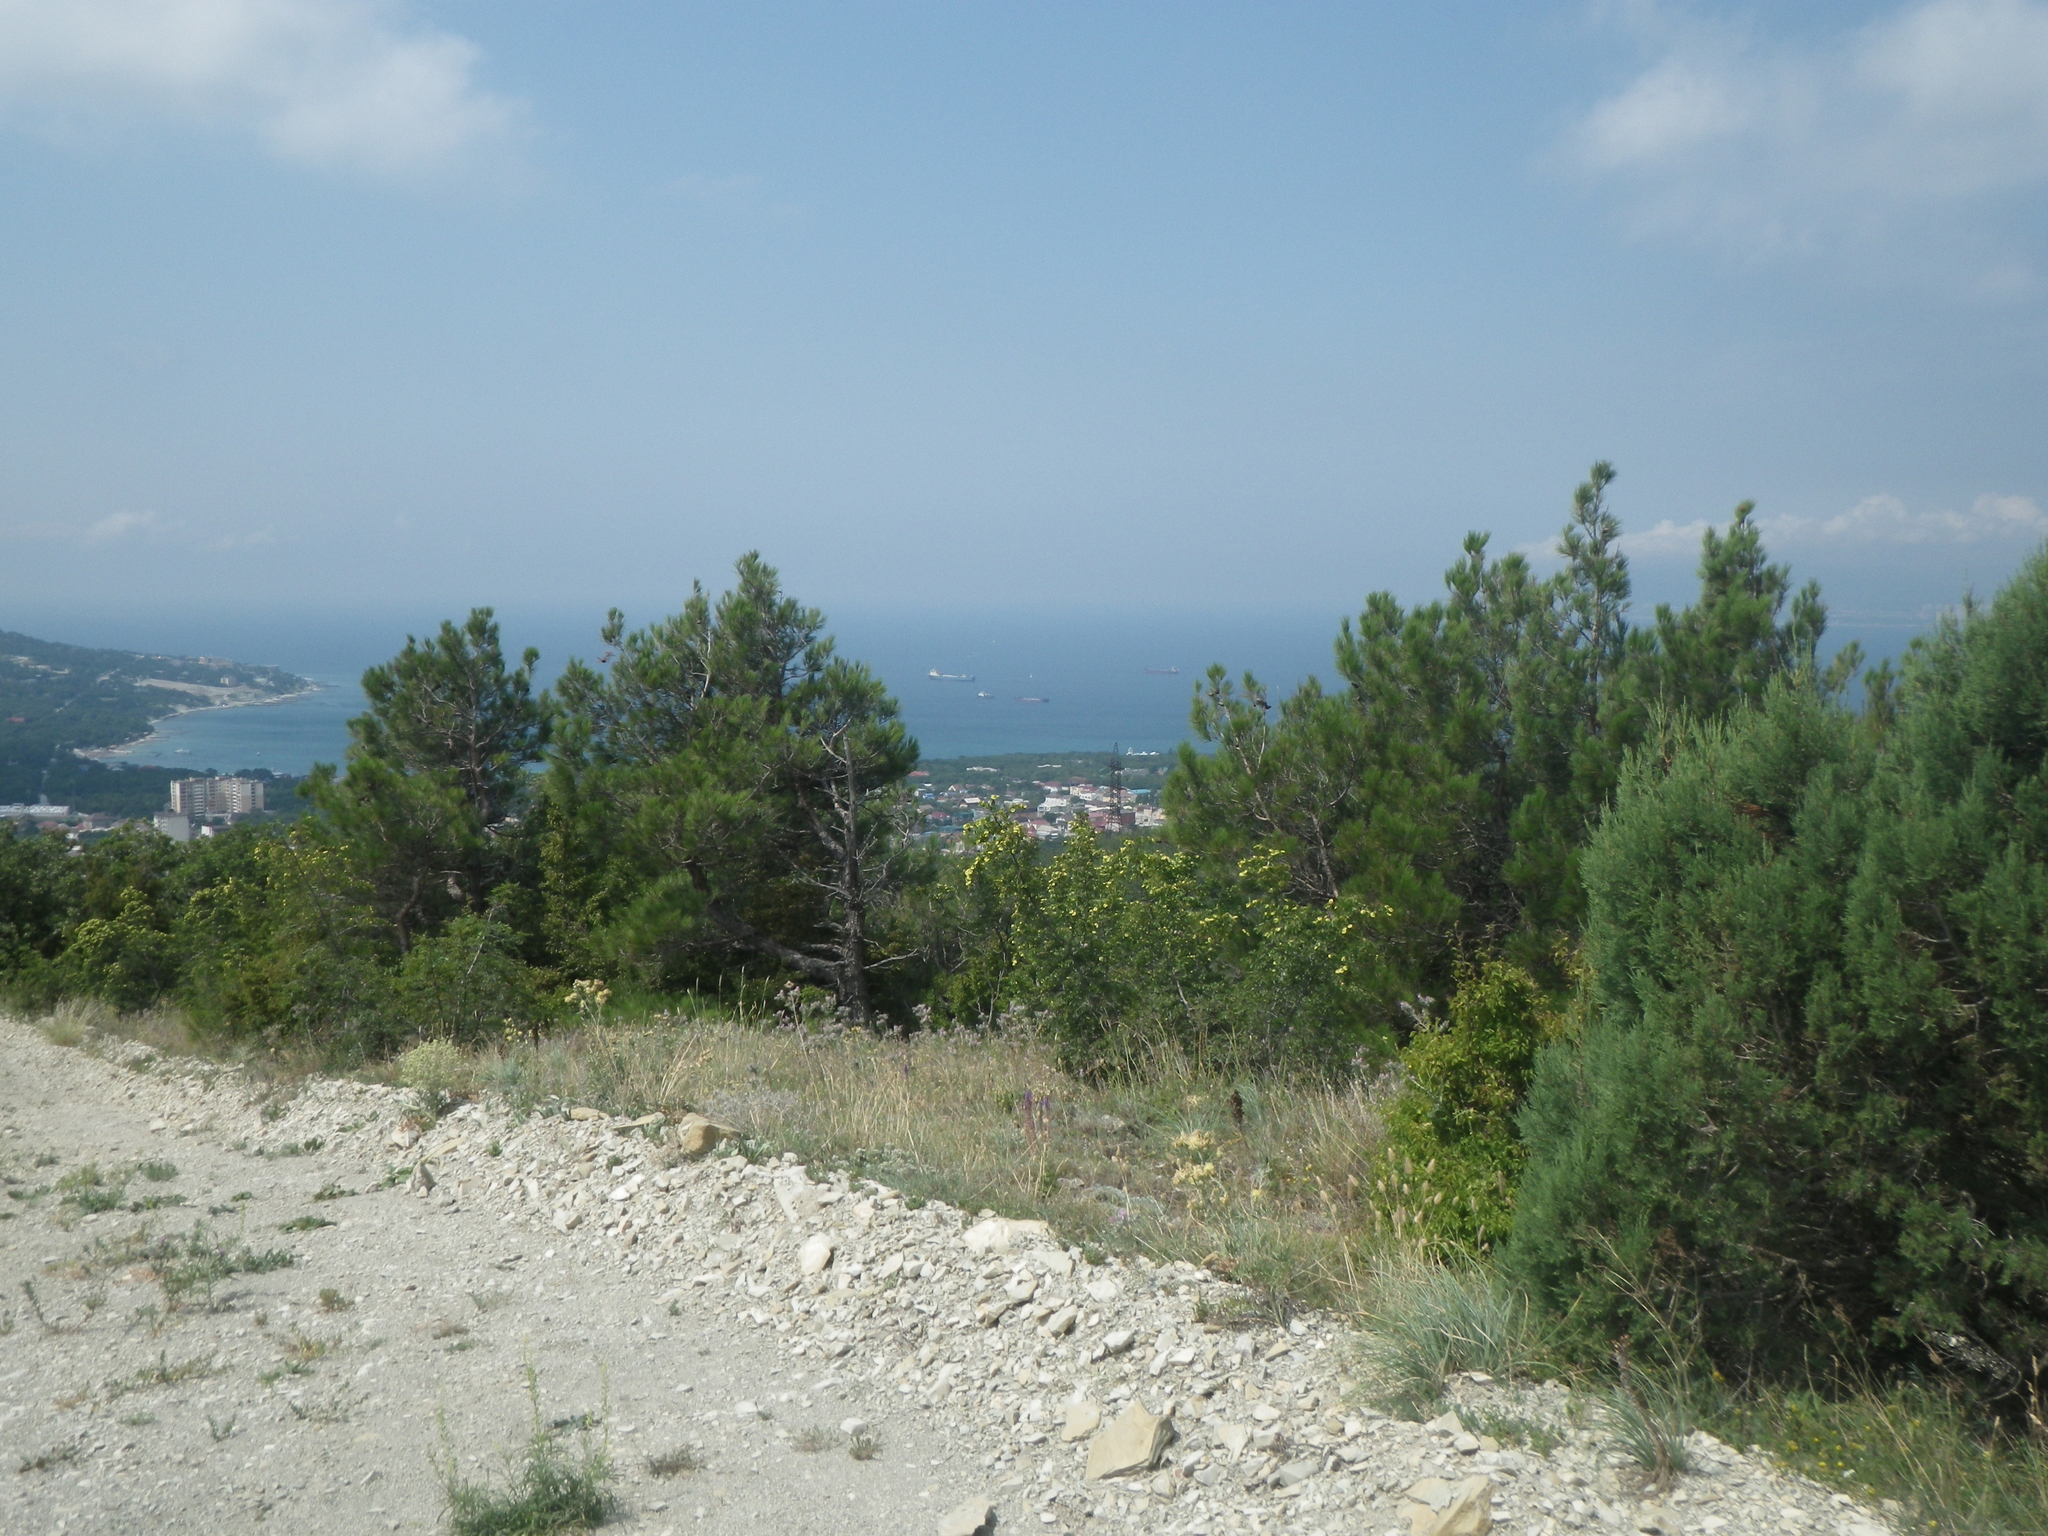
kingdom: Plantae
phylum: Tracheophyta
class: Pinopsida
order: Pinales
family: Cupressaceae
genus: Juniperus
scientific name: Juniperus excelsa
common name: Crimean juniper
